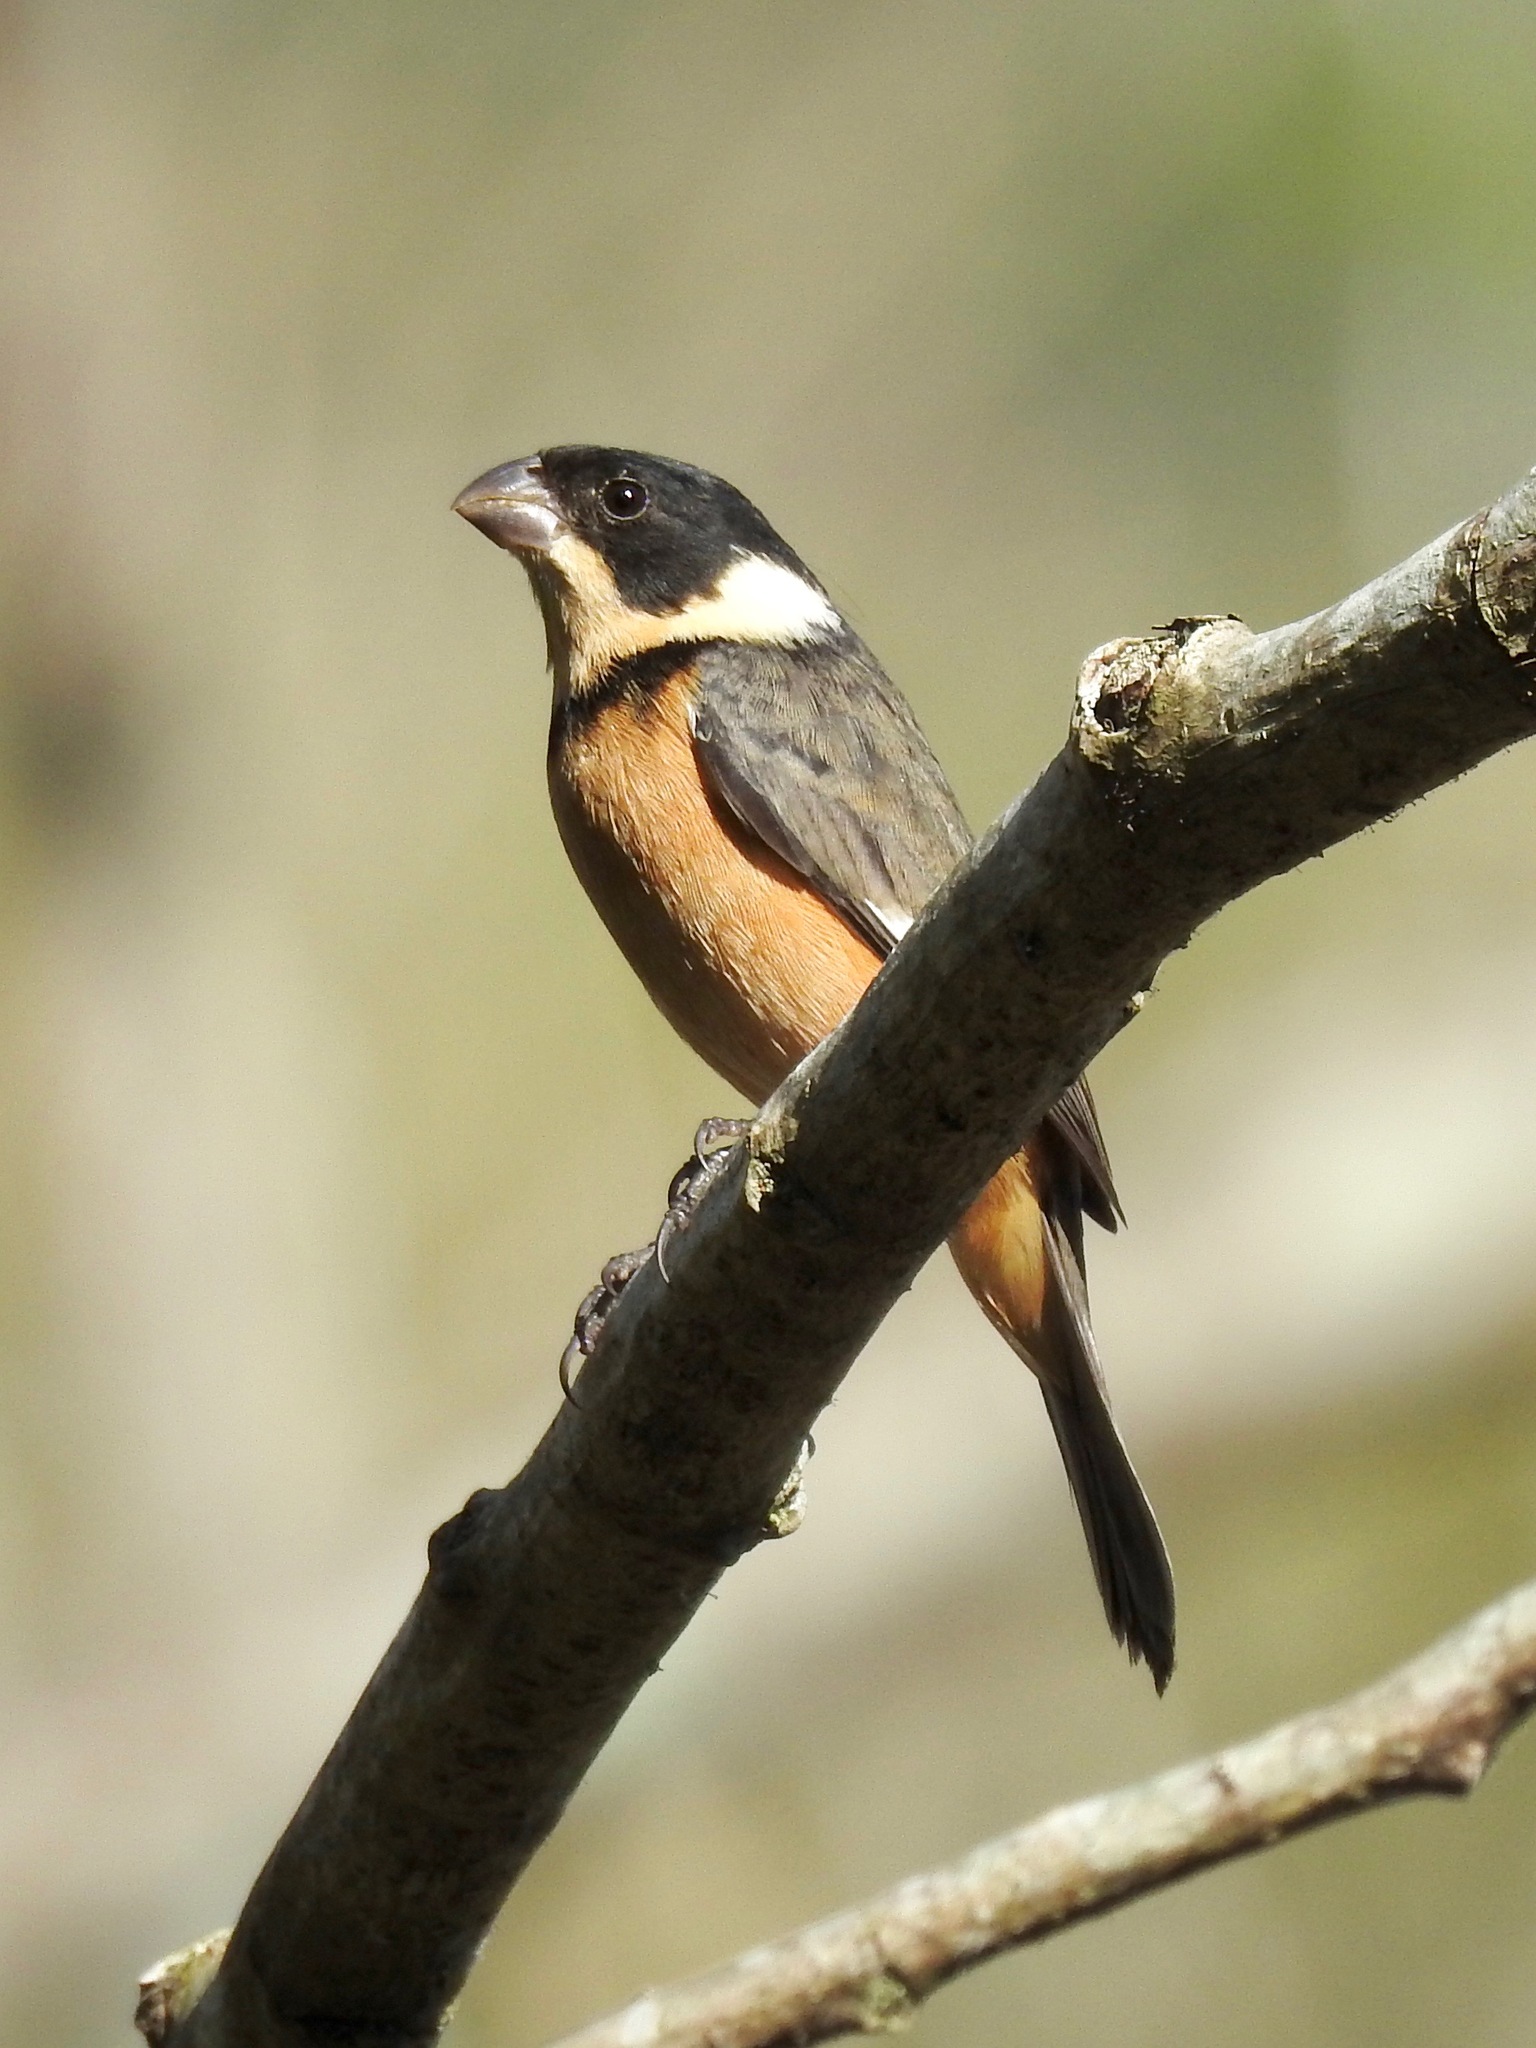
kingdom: Animalia
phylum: Chordata
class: Aves
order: Passeriformes
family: Thraupidae
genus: Sporophila
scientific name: Sporophila torqueola
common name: White-collared seedeater
